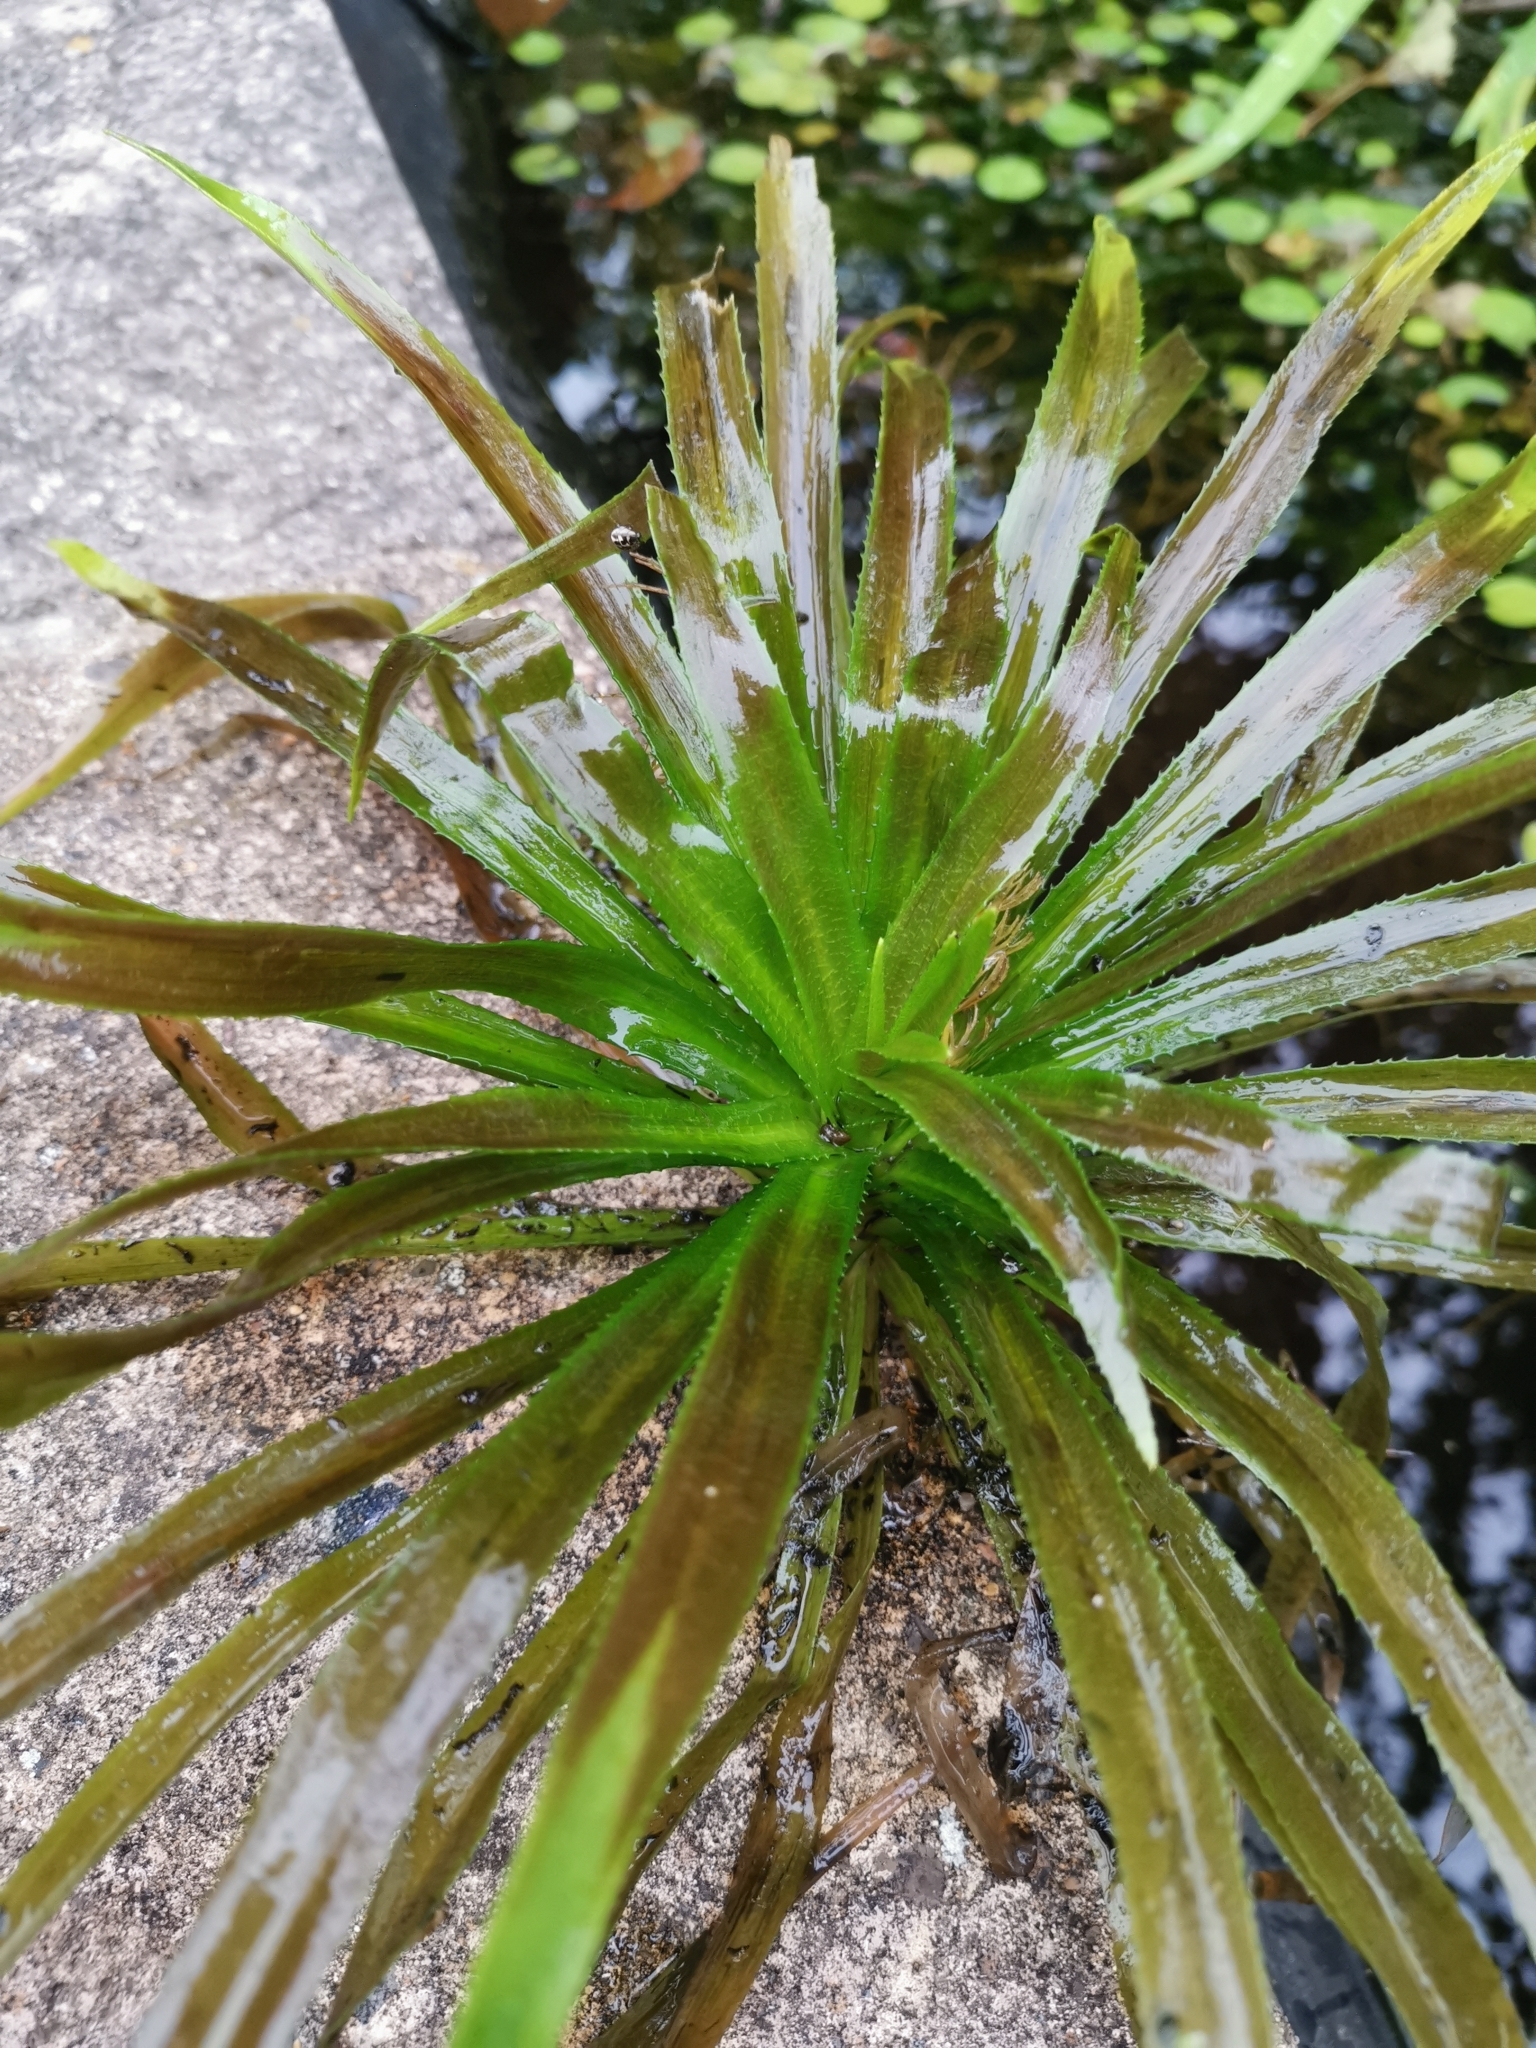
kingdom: Plantae
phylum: Tracheophyta
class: Liliopsida
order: Alismatales
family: Hydrocharitaceae
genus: Stratiotes
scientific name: Stratiotes aloides
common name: Water-soldier
